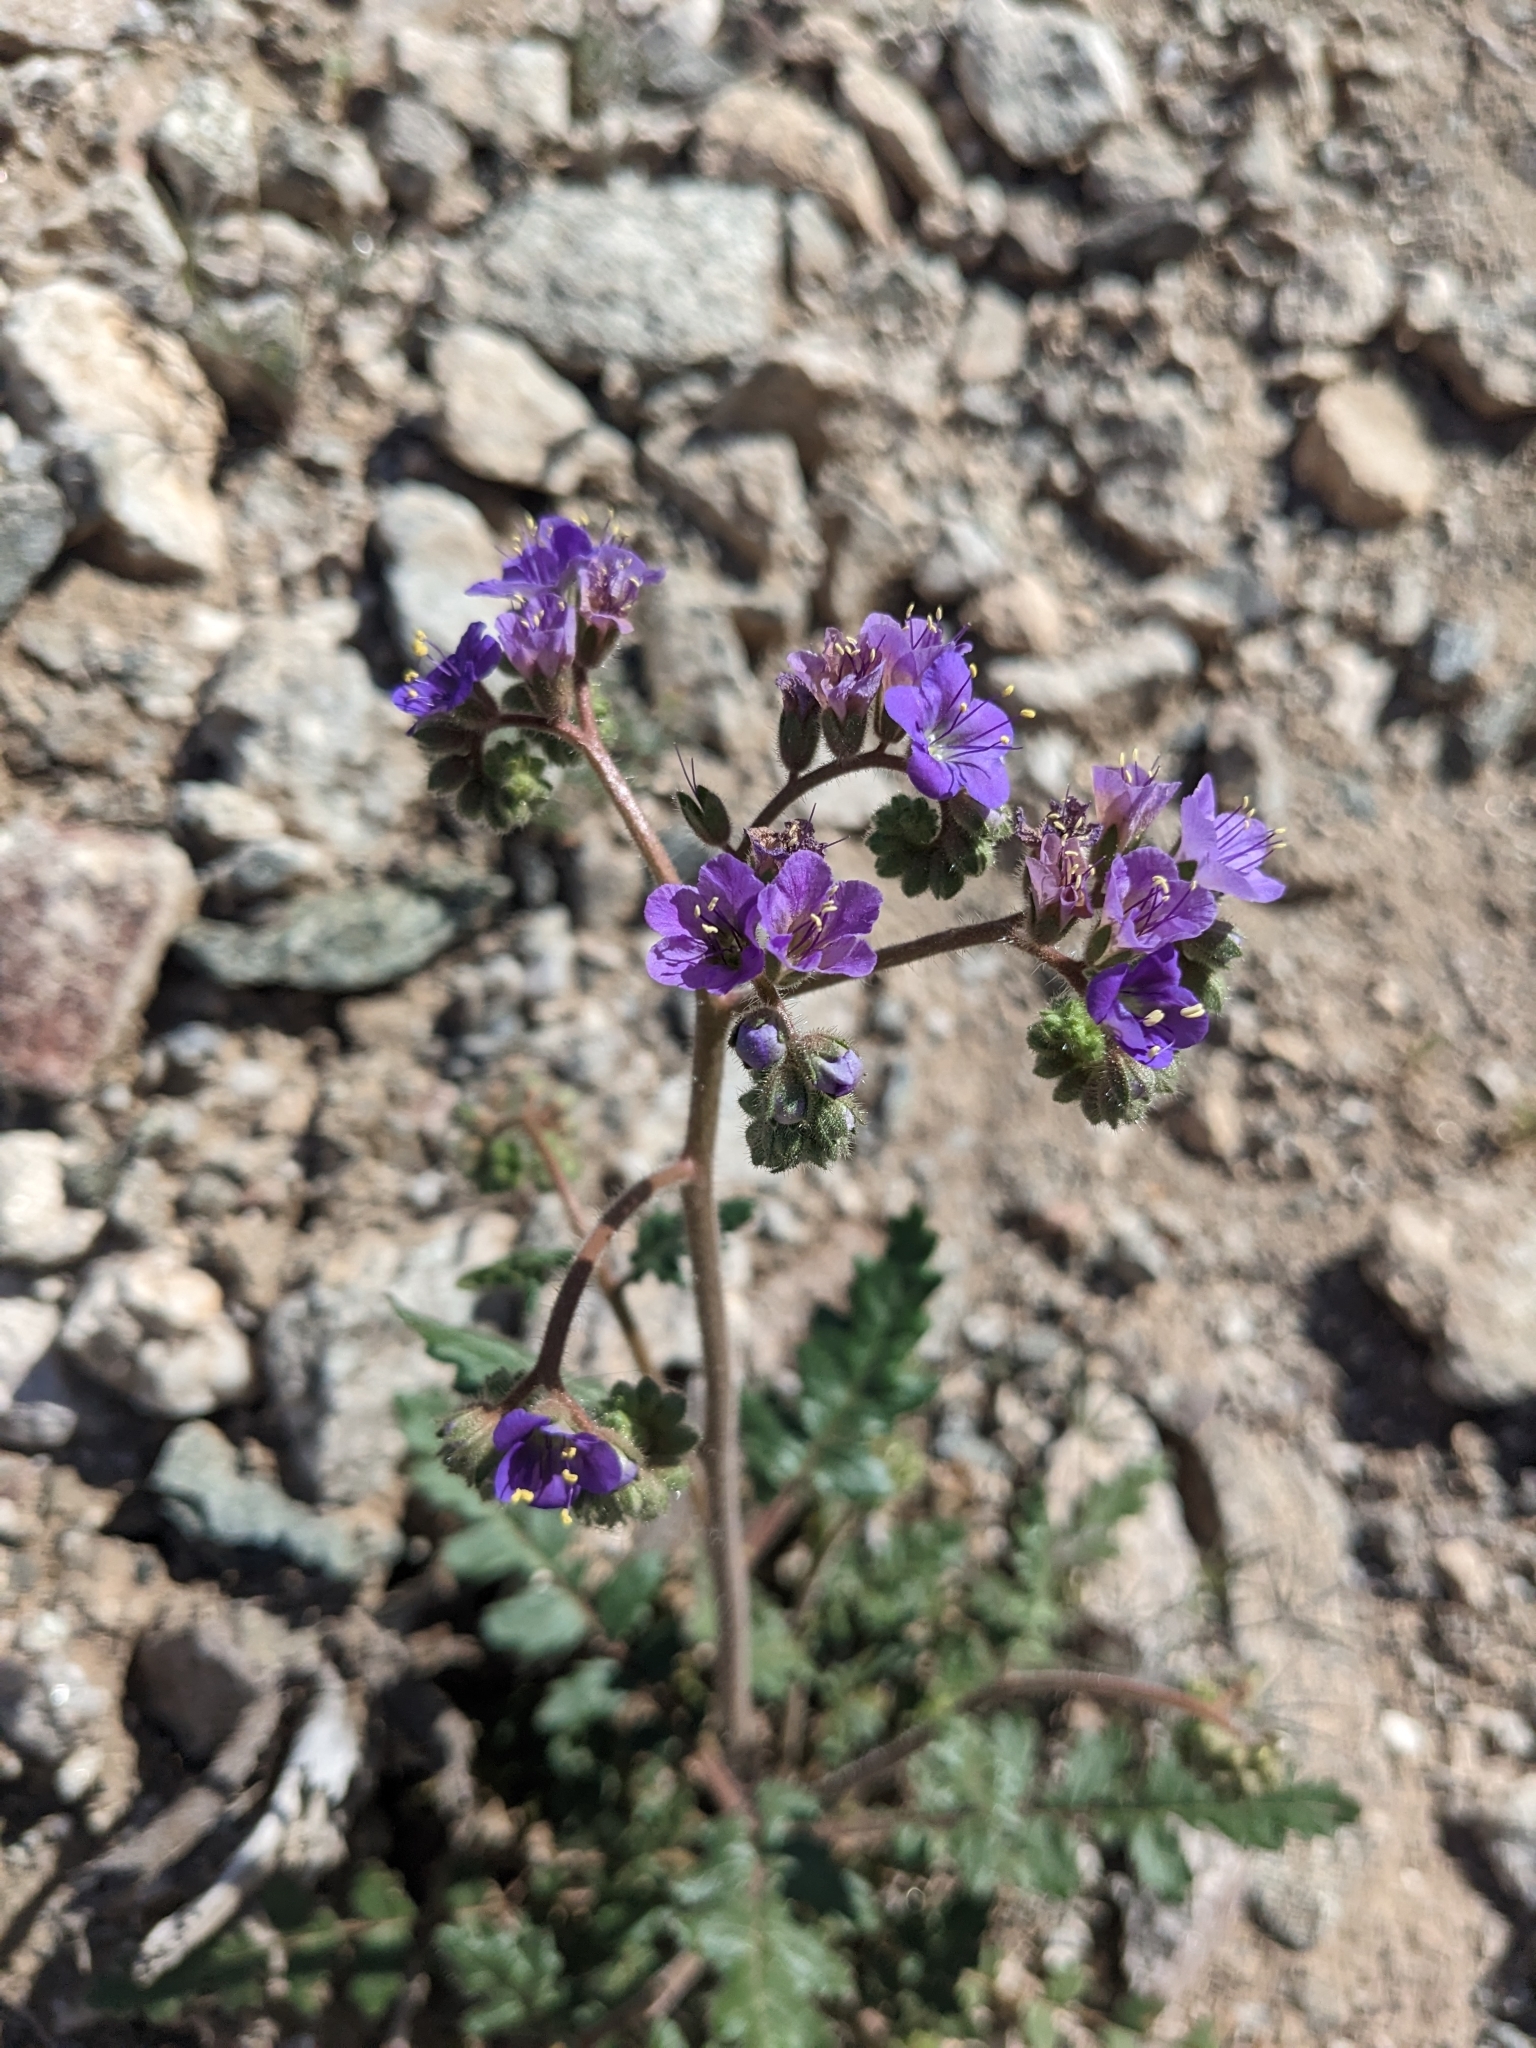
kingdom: Plantae
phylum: Tracheophyta
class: Magnoliopsida
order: Boraginales
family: Hydrophyllaceae
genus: Phacelia
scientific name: Phacelia crenulata
